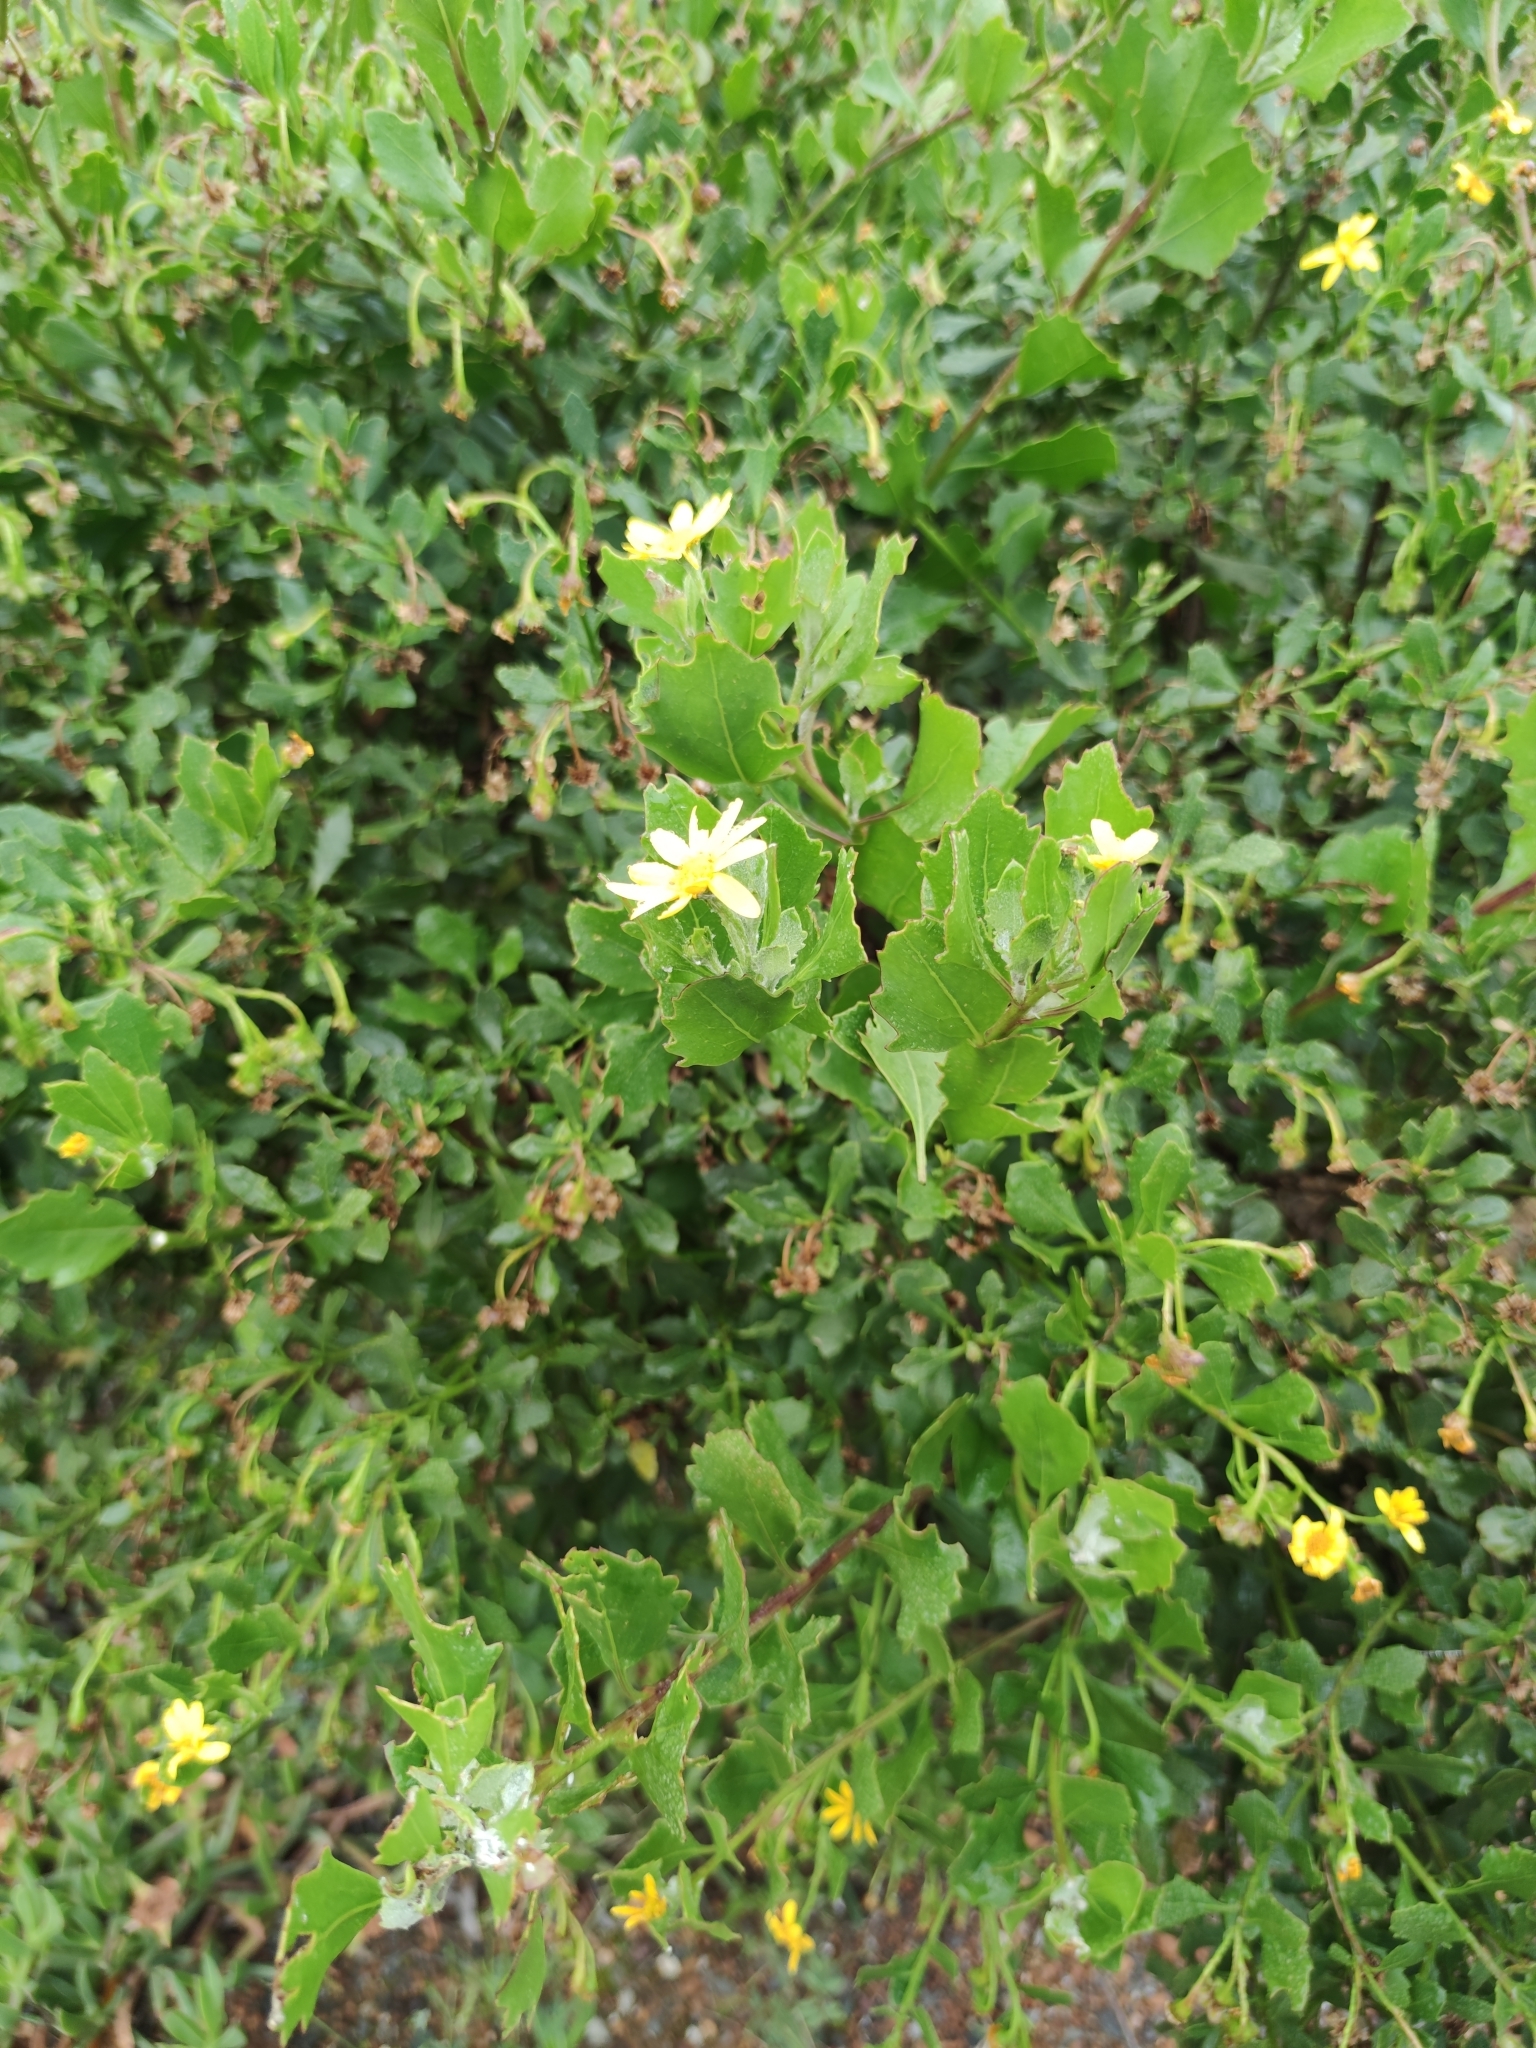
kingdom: Plantae
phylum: Tracheophyta
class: Magnoliopsida
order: Asterales
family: Asteraceae
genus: Osteospermum
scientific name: Osteospermum moniliferum
